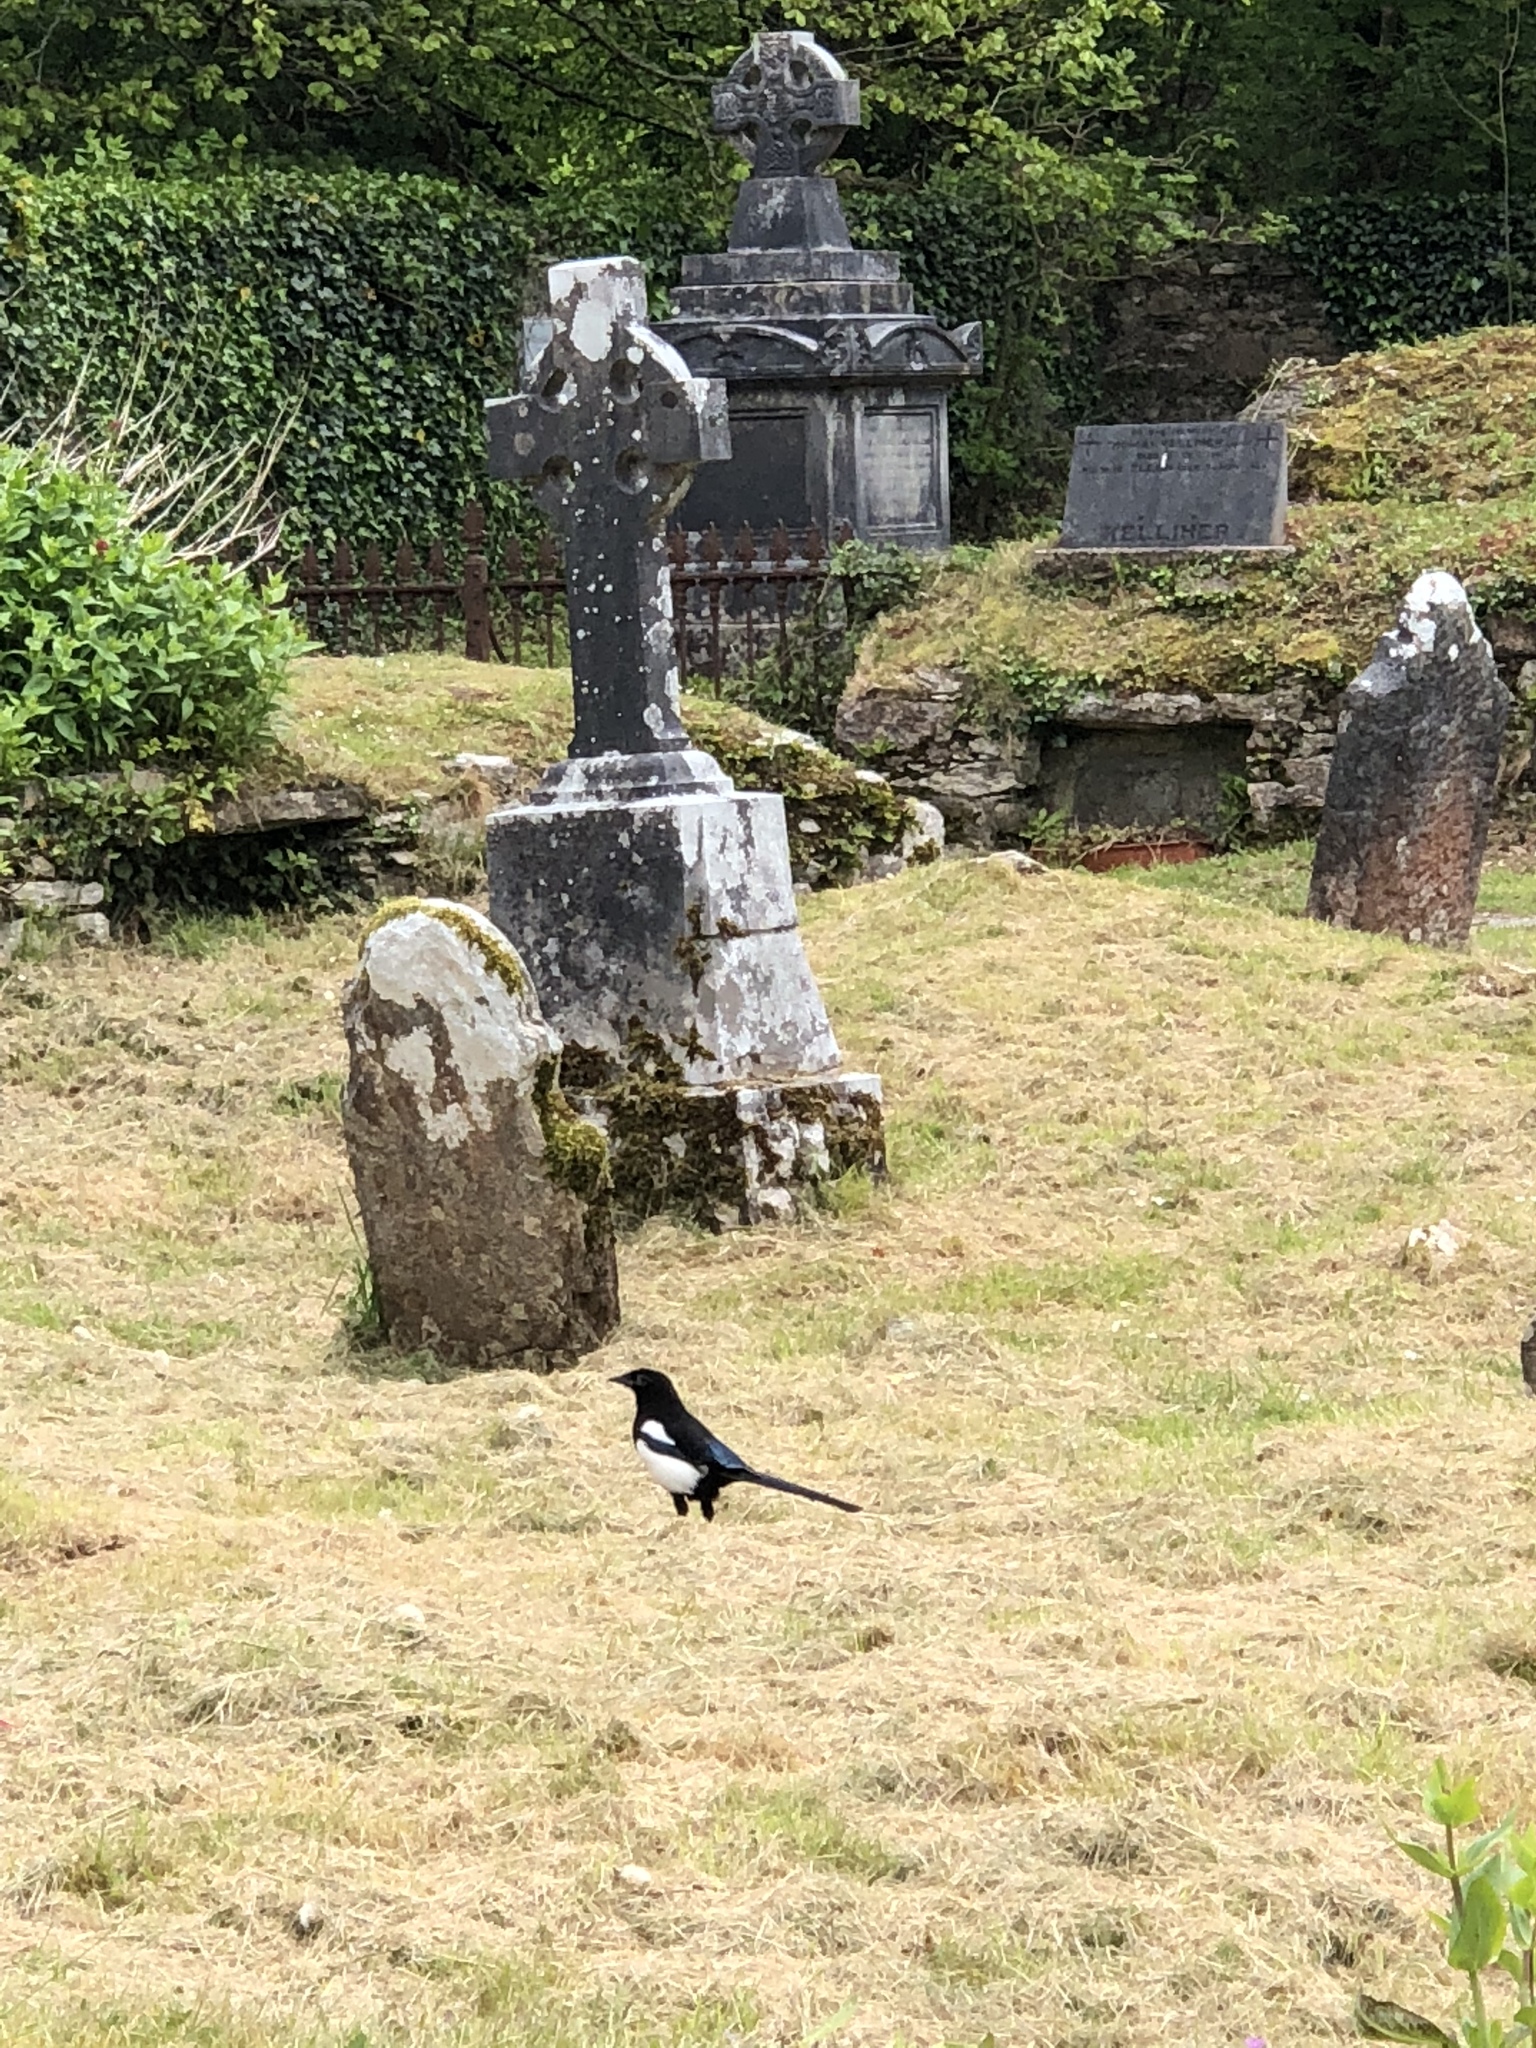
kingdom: Animalia
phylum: Chordata
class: Aves
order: Passeriformes
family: Corvidae
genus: Pica
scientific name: Pica pica
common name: Eurasian magpie
